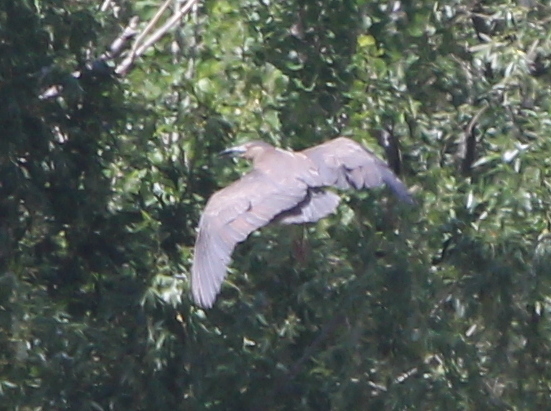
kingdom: Animalia
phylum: Chordata
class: Aves
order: Pelecaniformes
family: Ardeidae
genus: Nycticorax
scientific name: Nycticorax nycticorax
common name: Black-crowned night heron
